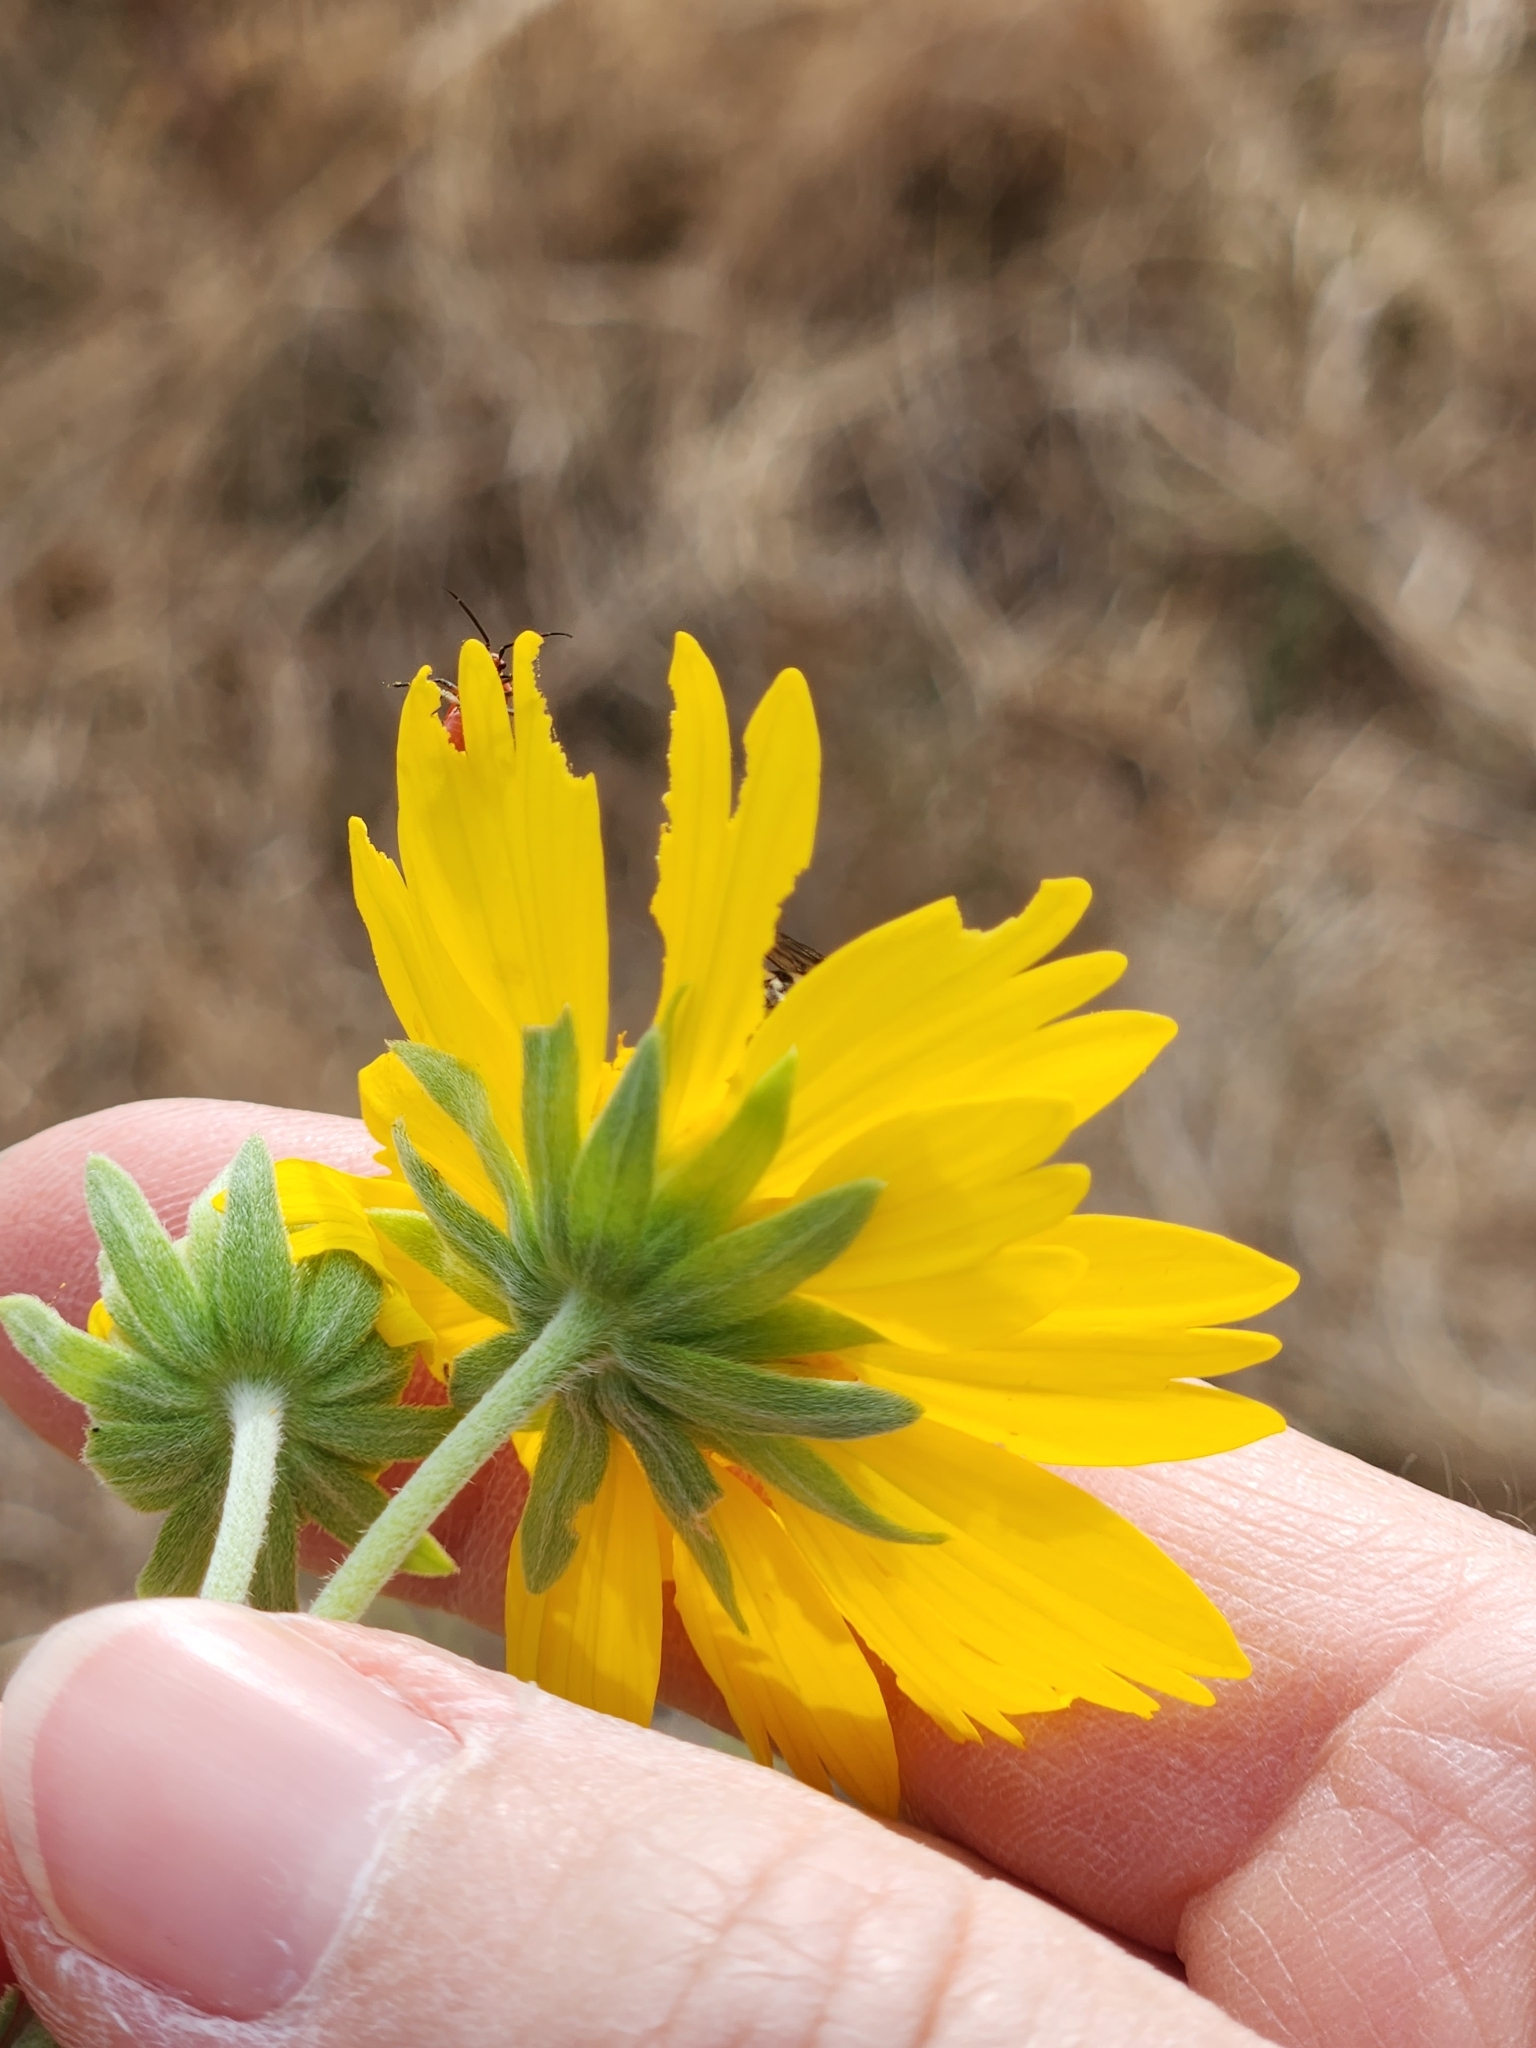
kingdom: Plantae
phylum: Tracheophyta
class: Magnoliopsida
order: Asterales
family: Asteraceae
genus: Verbesina
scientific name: Verbesina encelioides
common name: Golden crownbeard
